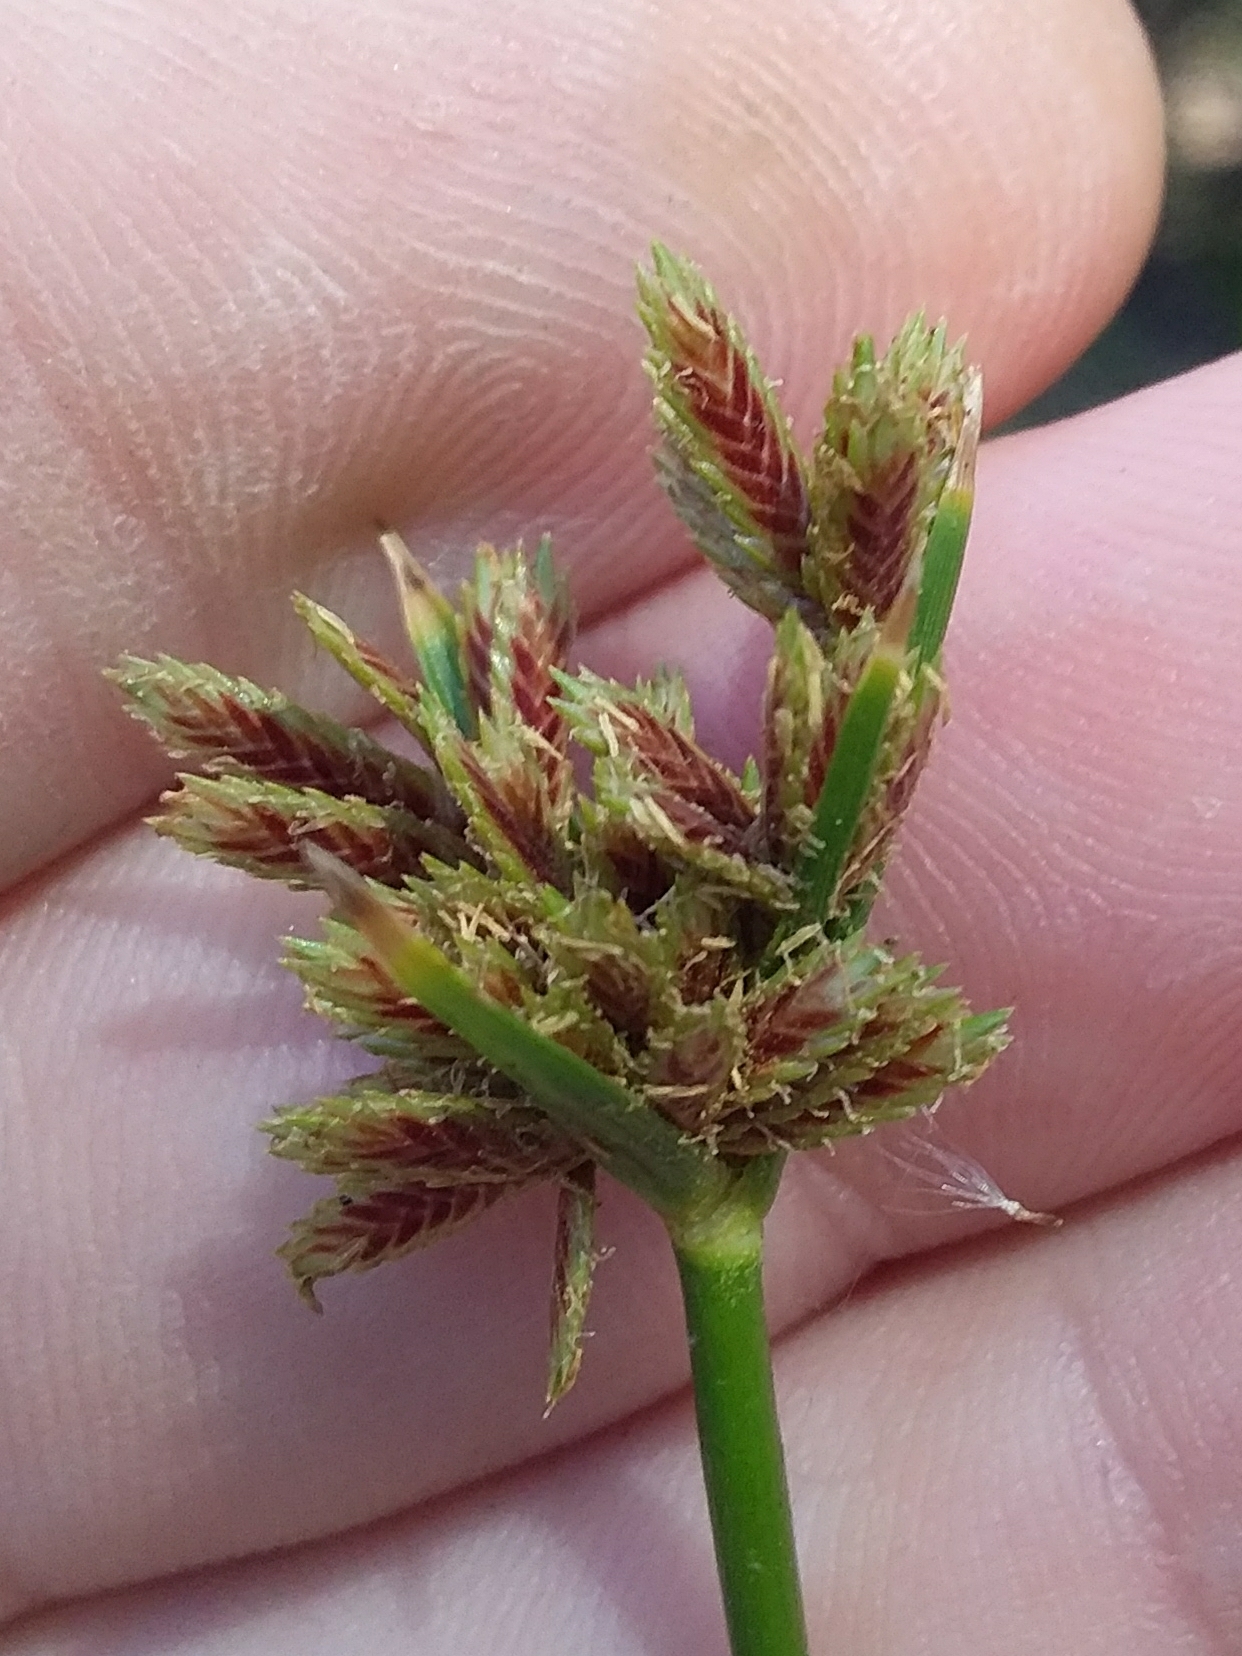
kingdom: Plantae
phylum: Tracheophyta
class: Liliopsida
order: Poales
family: Cyperaceae
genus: Cyperus
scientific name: Cyperus vaginatus
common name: Stiff-leaved flat-sedge
